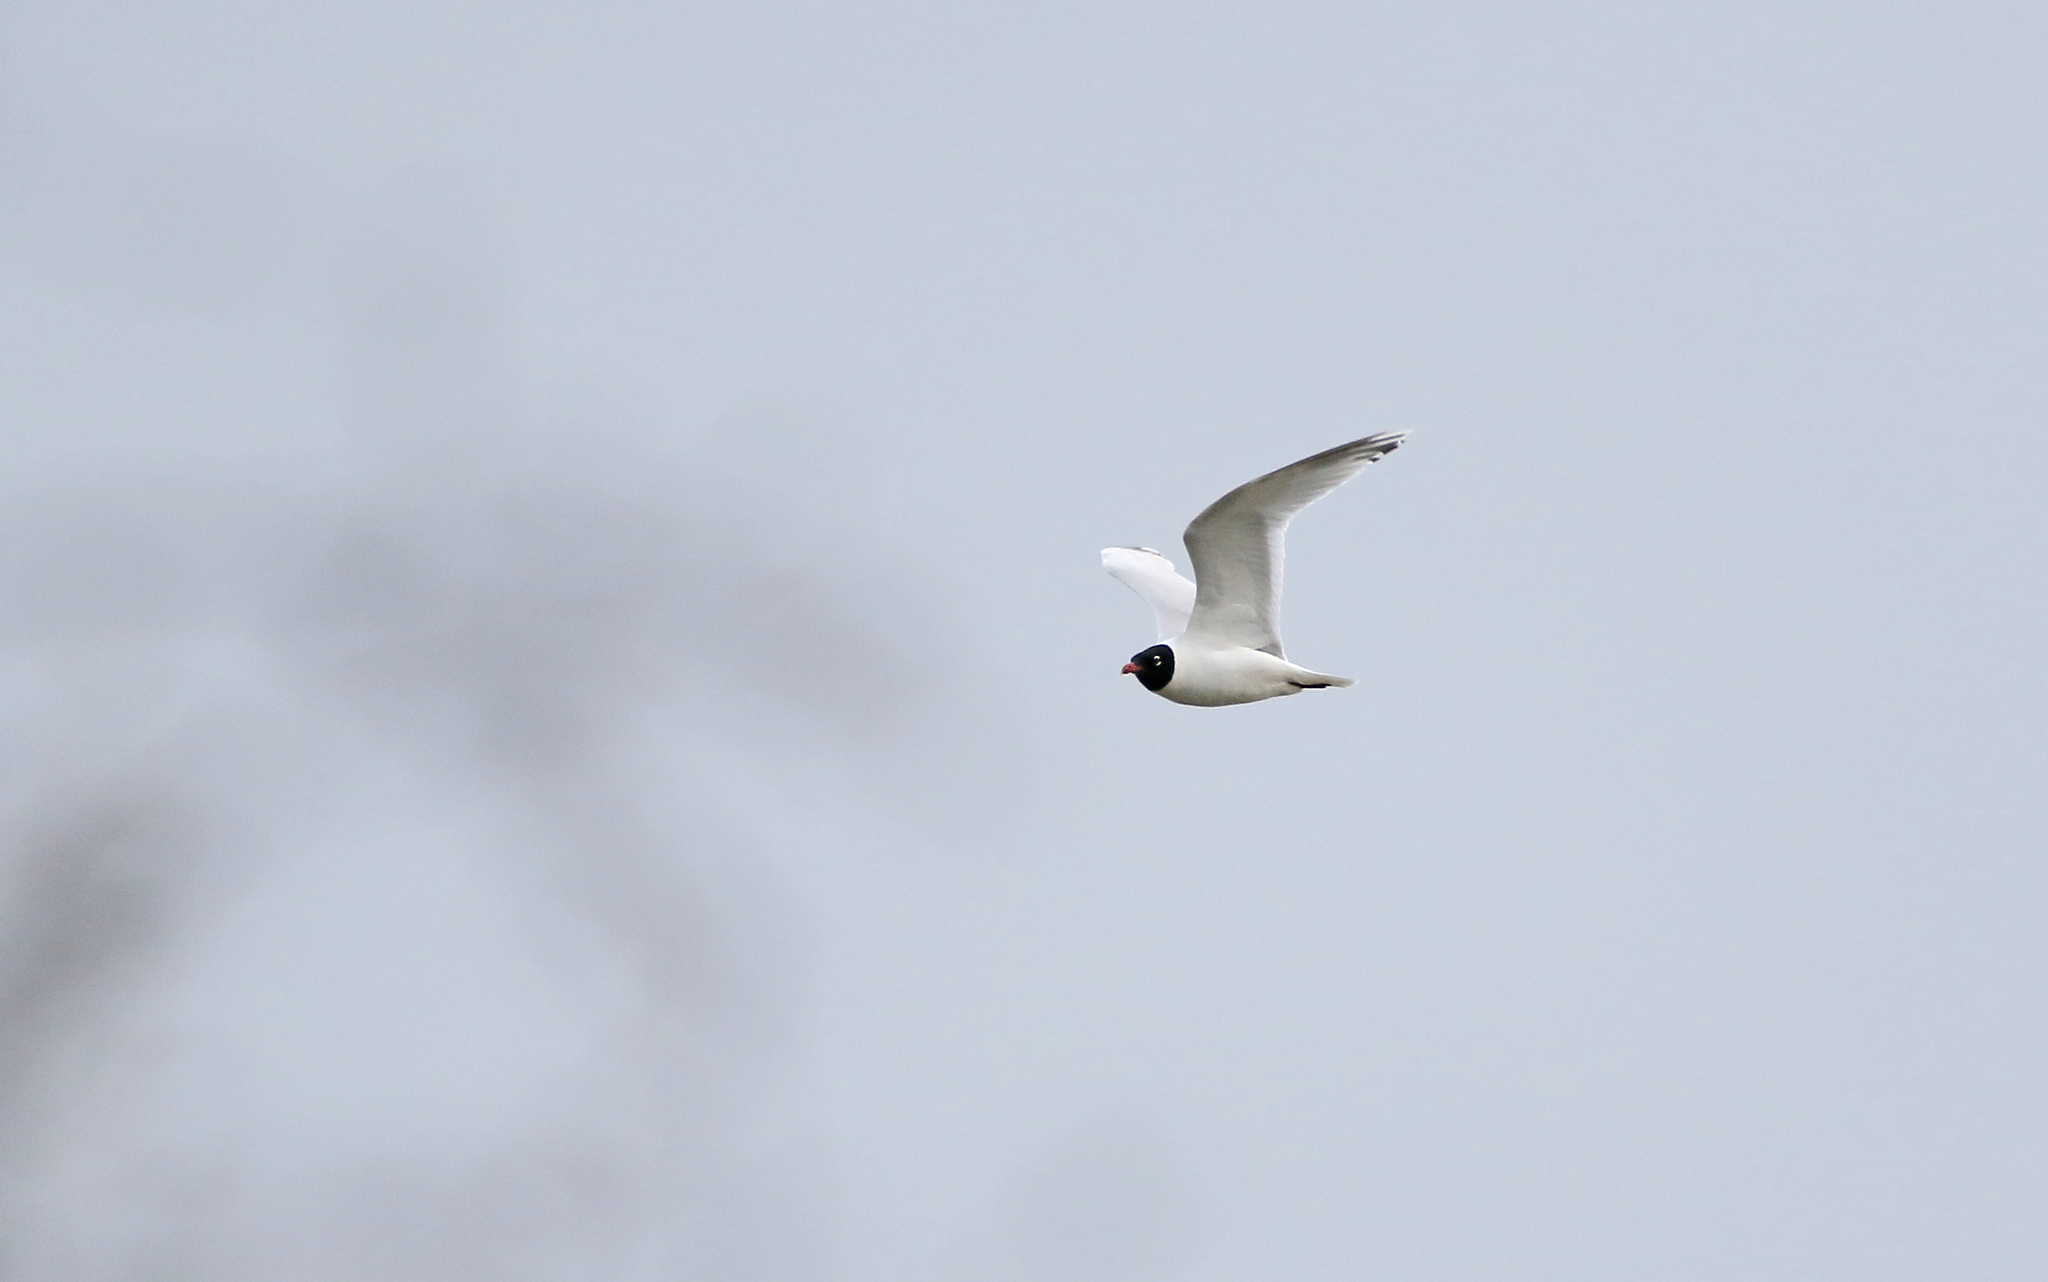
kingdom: Animalia
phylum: Chordata
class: Aves
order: Charadriiformes
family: Laridae
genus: Ichthyaetus
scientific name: Ichthyaetus melanocephalus
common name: Mediterranean gull
